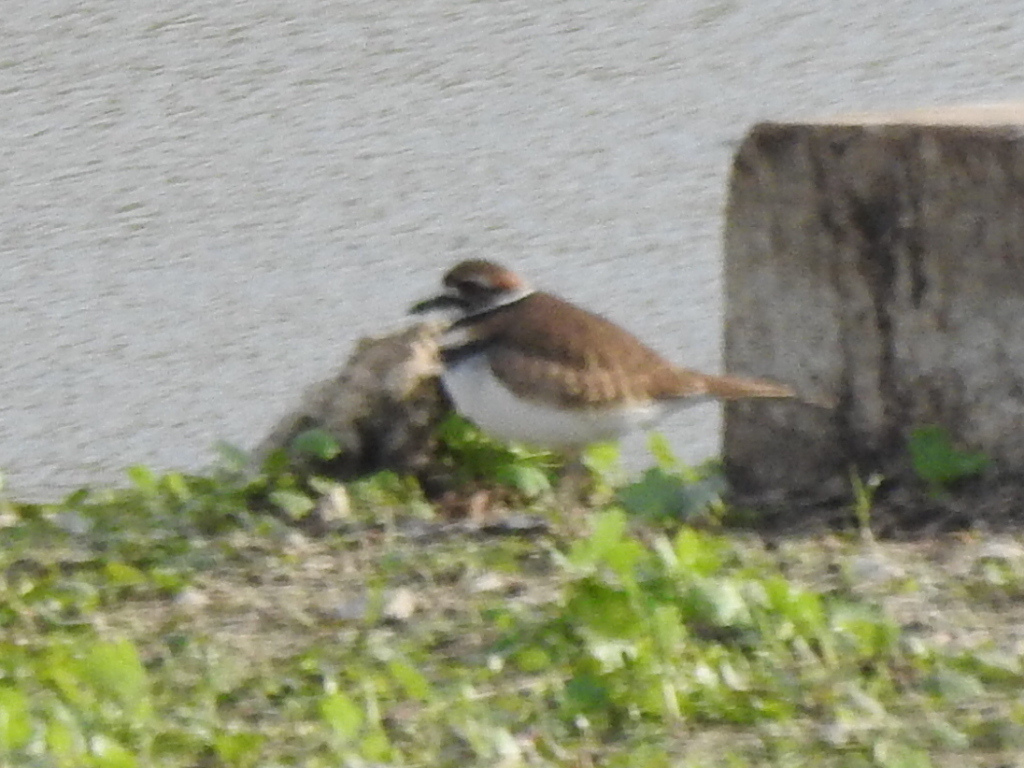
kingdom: Animalia
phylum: Chordata
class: Aves
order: Charadriiformes
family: Charadriidae
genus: Charadrius
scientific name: Charadrius vociferus
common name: Killdeer
